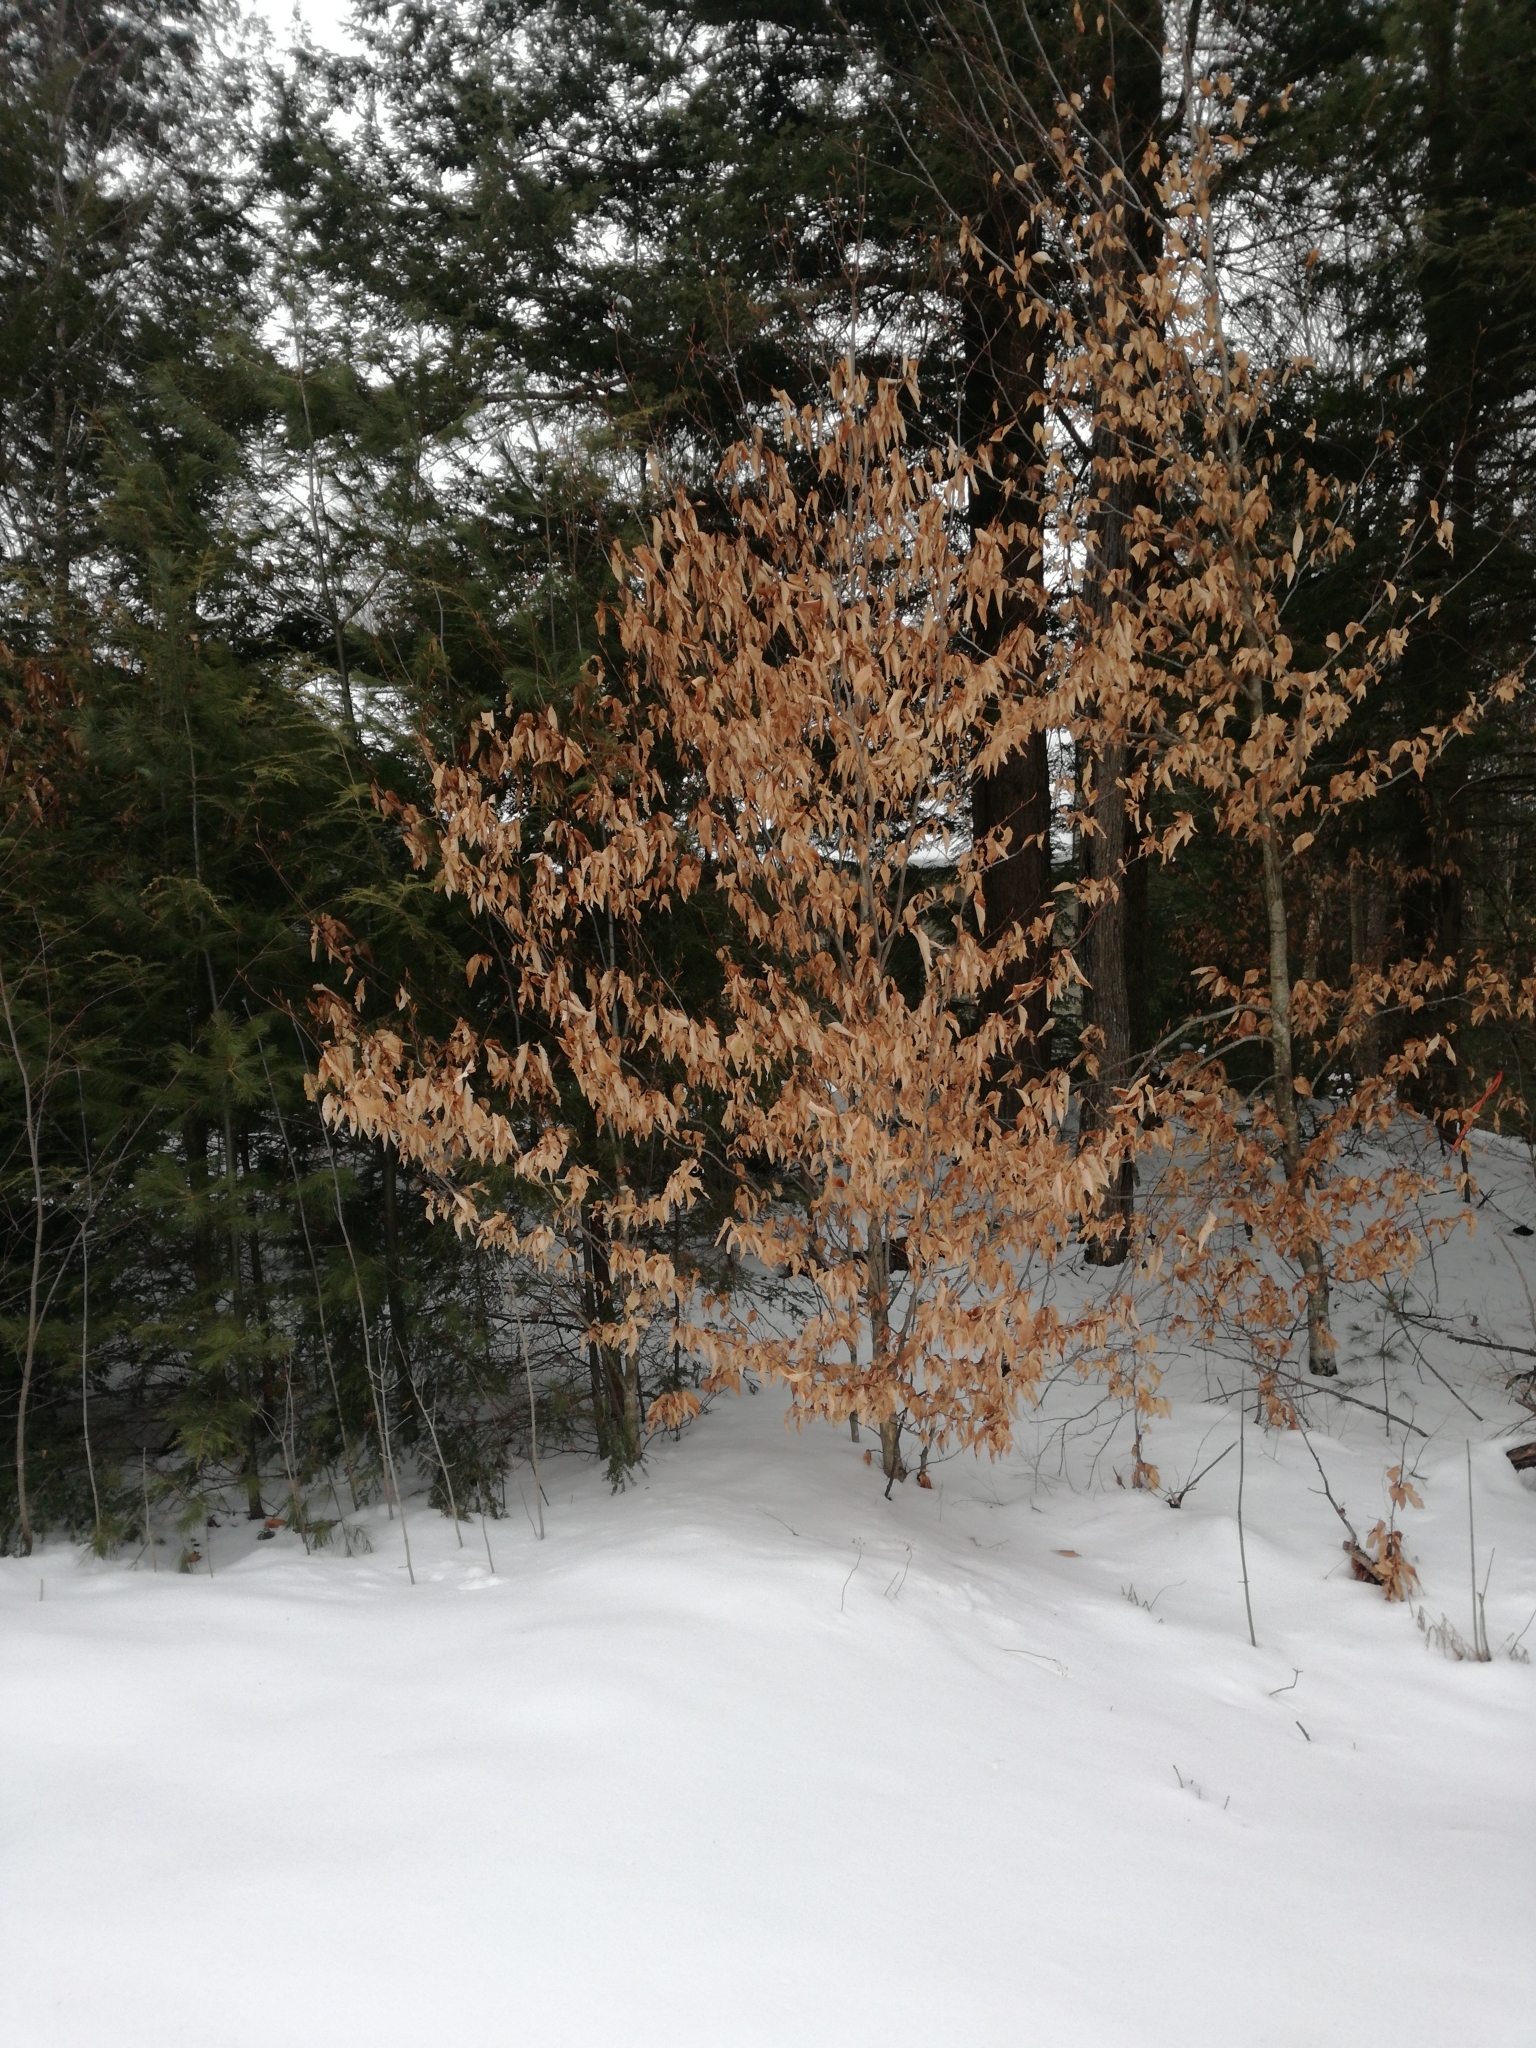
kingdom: Plantae
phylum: Tracheophyta
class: Magnoliopsida
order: Fagales
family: Fagaceae
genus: Fagus
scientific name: Fagus grandifolia
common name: American beech
